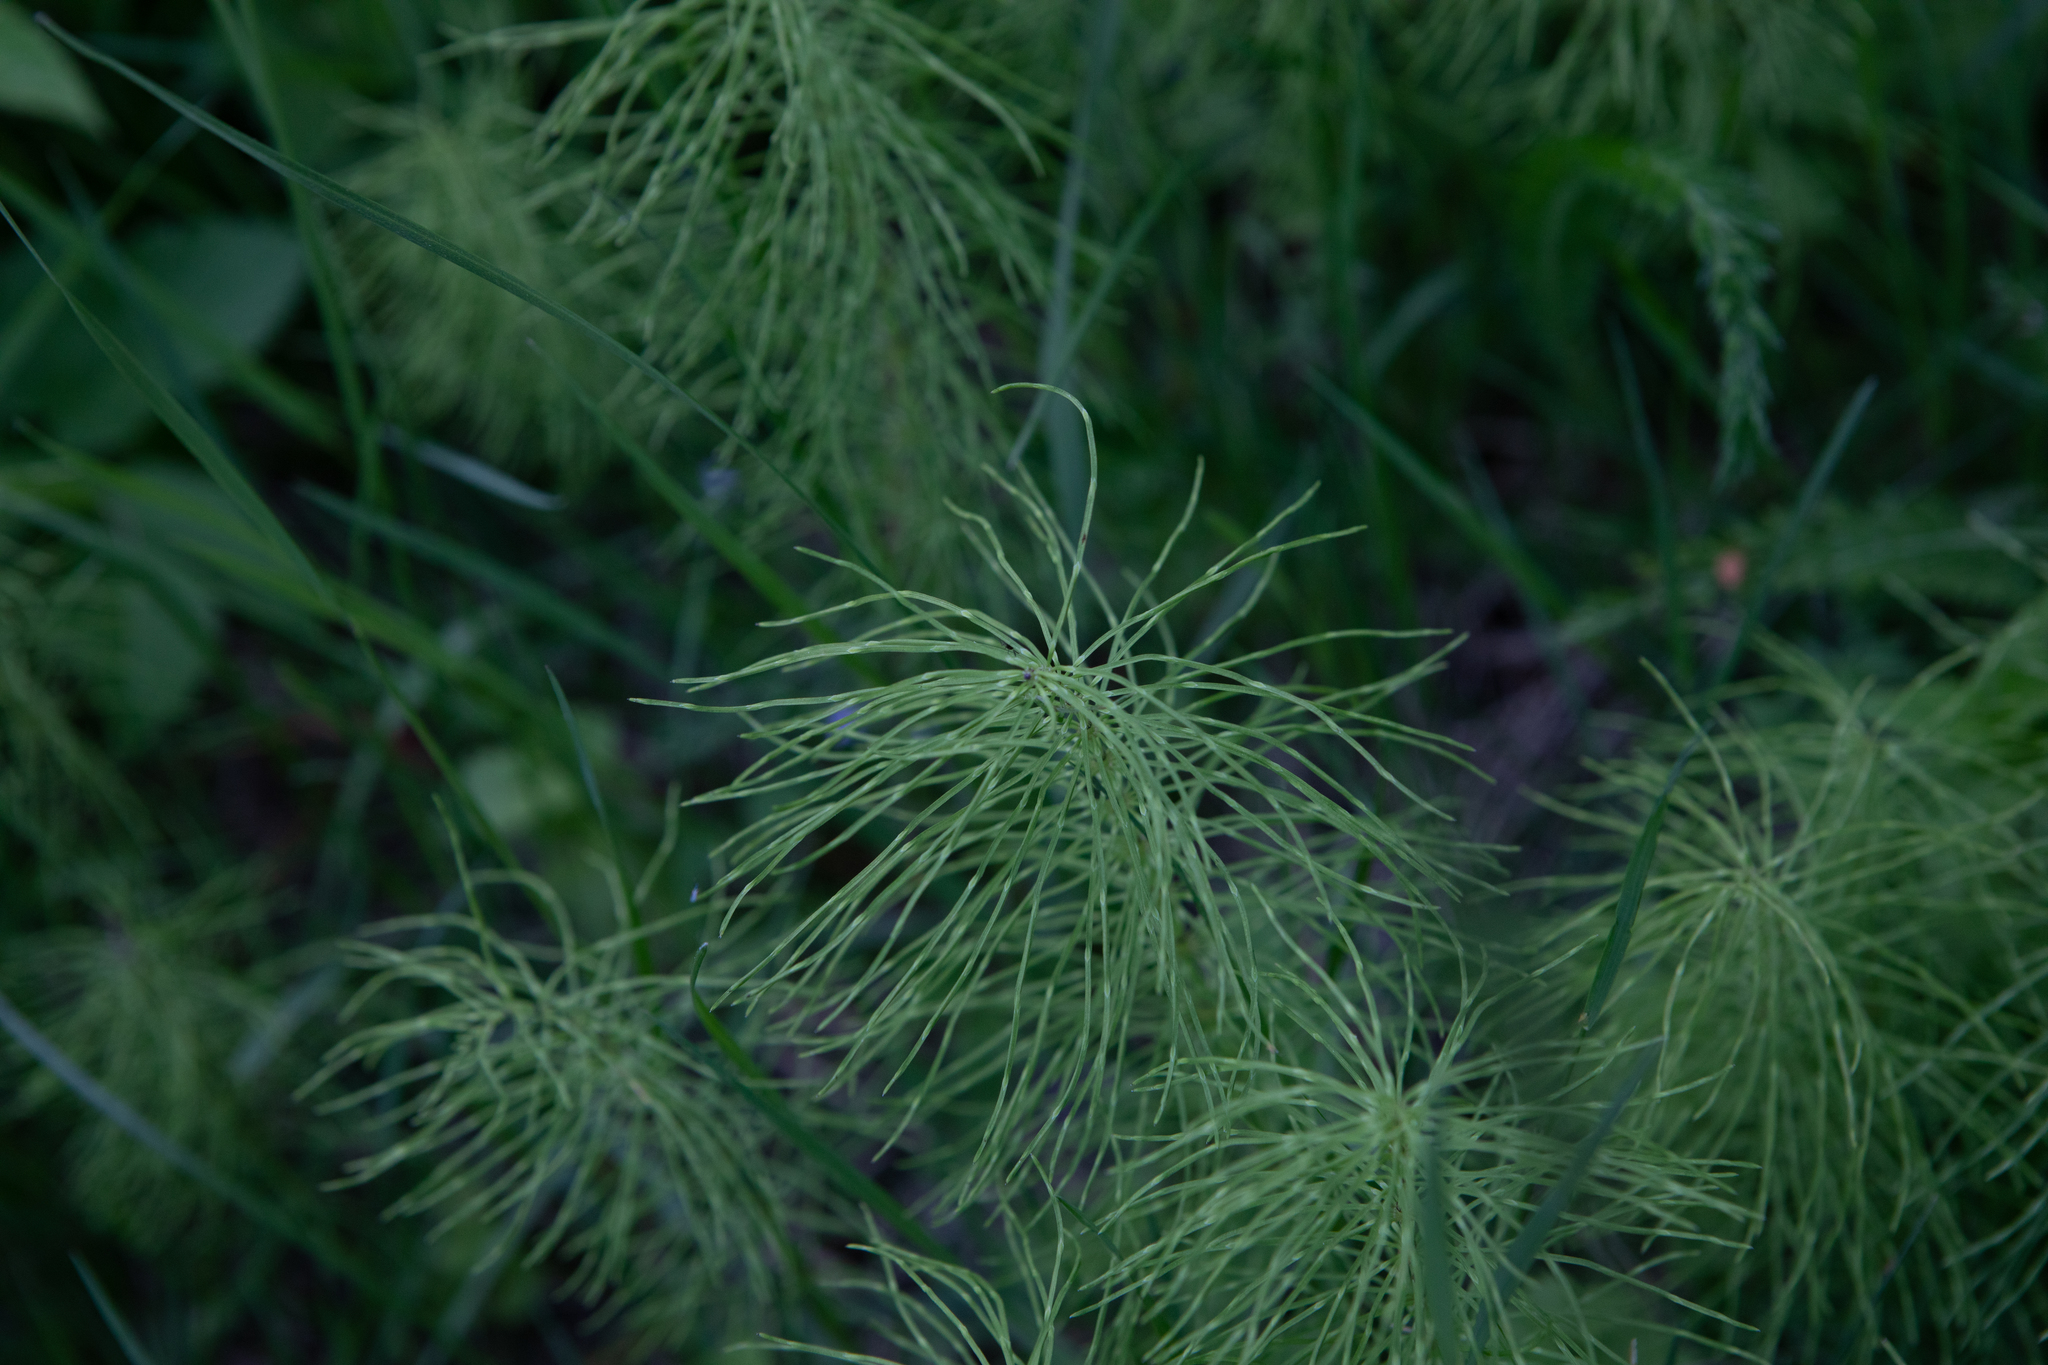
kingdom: Plantae
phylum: Tracheophyta
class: Polypodiopsida
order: Equisetales
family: Equisetaceae
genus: Equisetum
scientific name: Equisetum pratense
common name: Meadow horsetail
